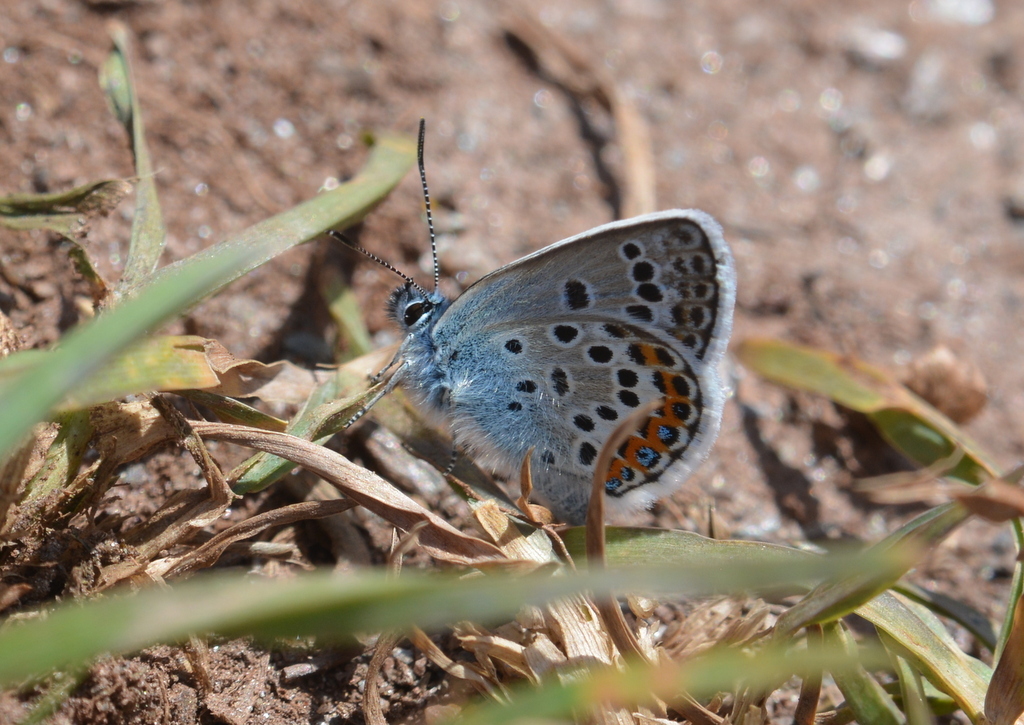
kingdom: Animalia
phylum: Arthropoda
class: Insecta
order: Lepidoptera
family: Lycaenidae
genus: Plebejus
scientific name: Plebejus argus
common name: Silver-studded blue
